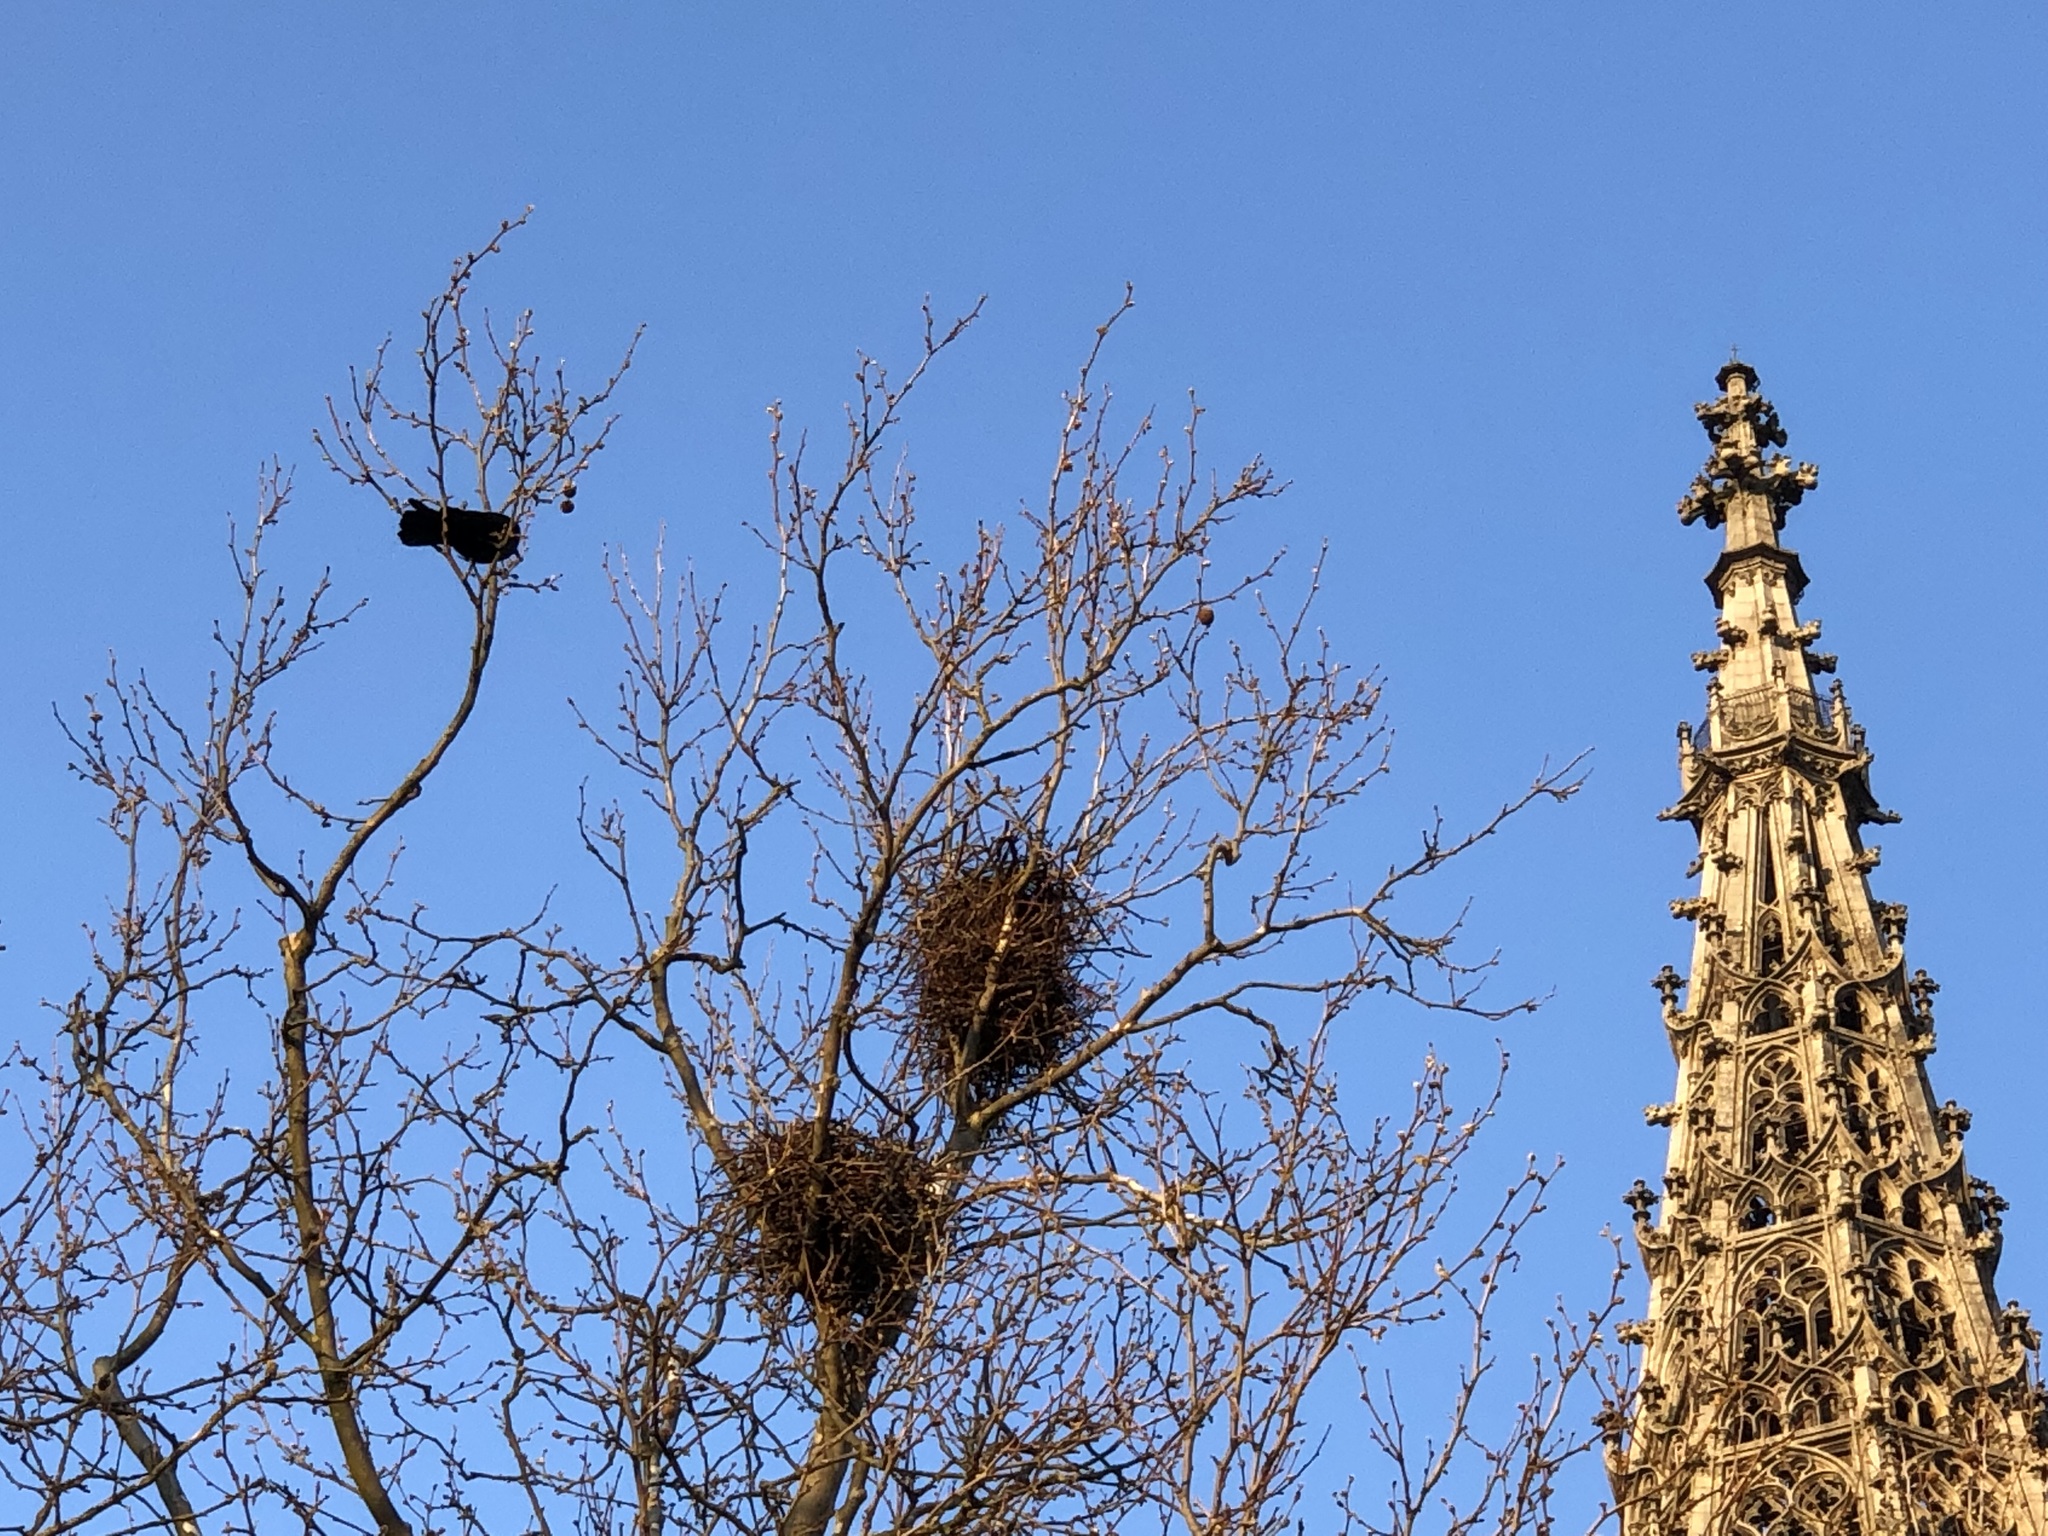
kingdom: Animalia
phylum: Chordata
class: Aves
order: Passeriformes
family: Corvidae
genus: Corvus
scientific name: Corvus frugilegus
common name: Rook
